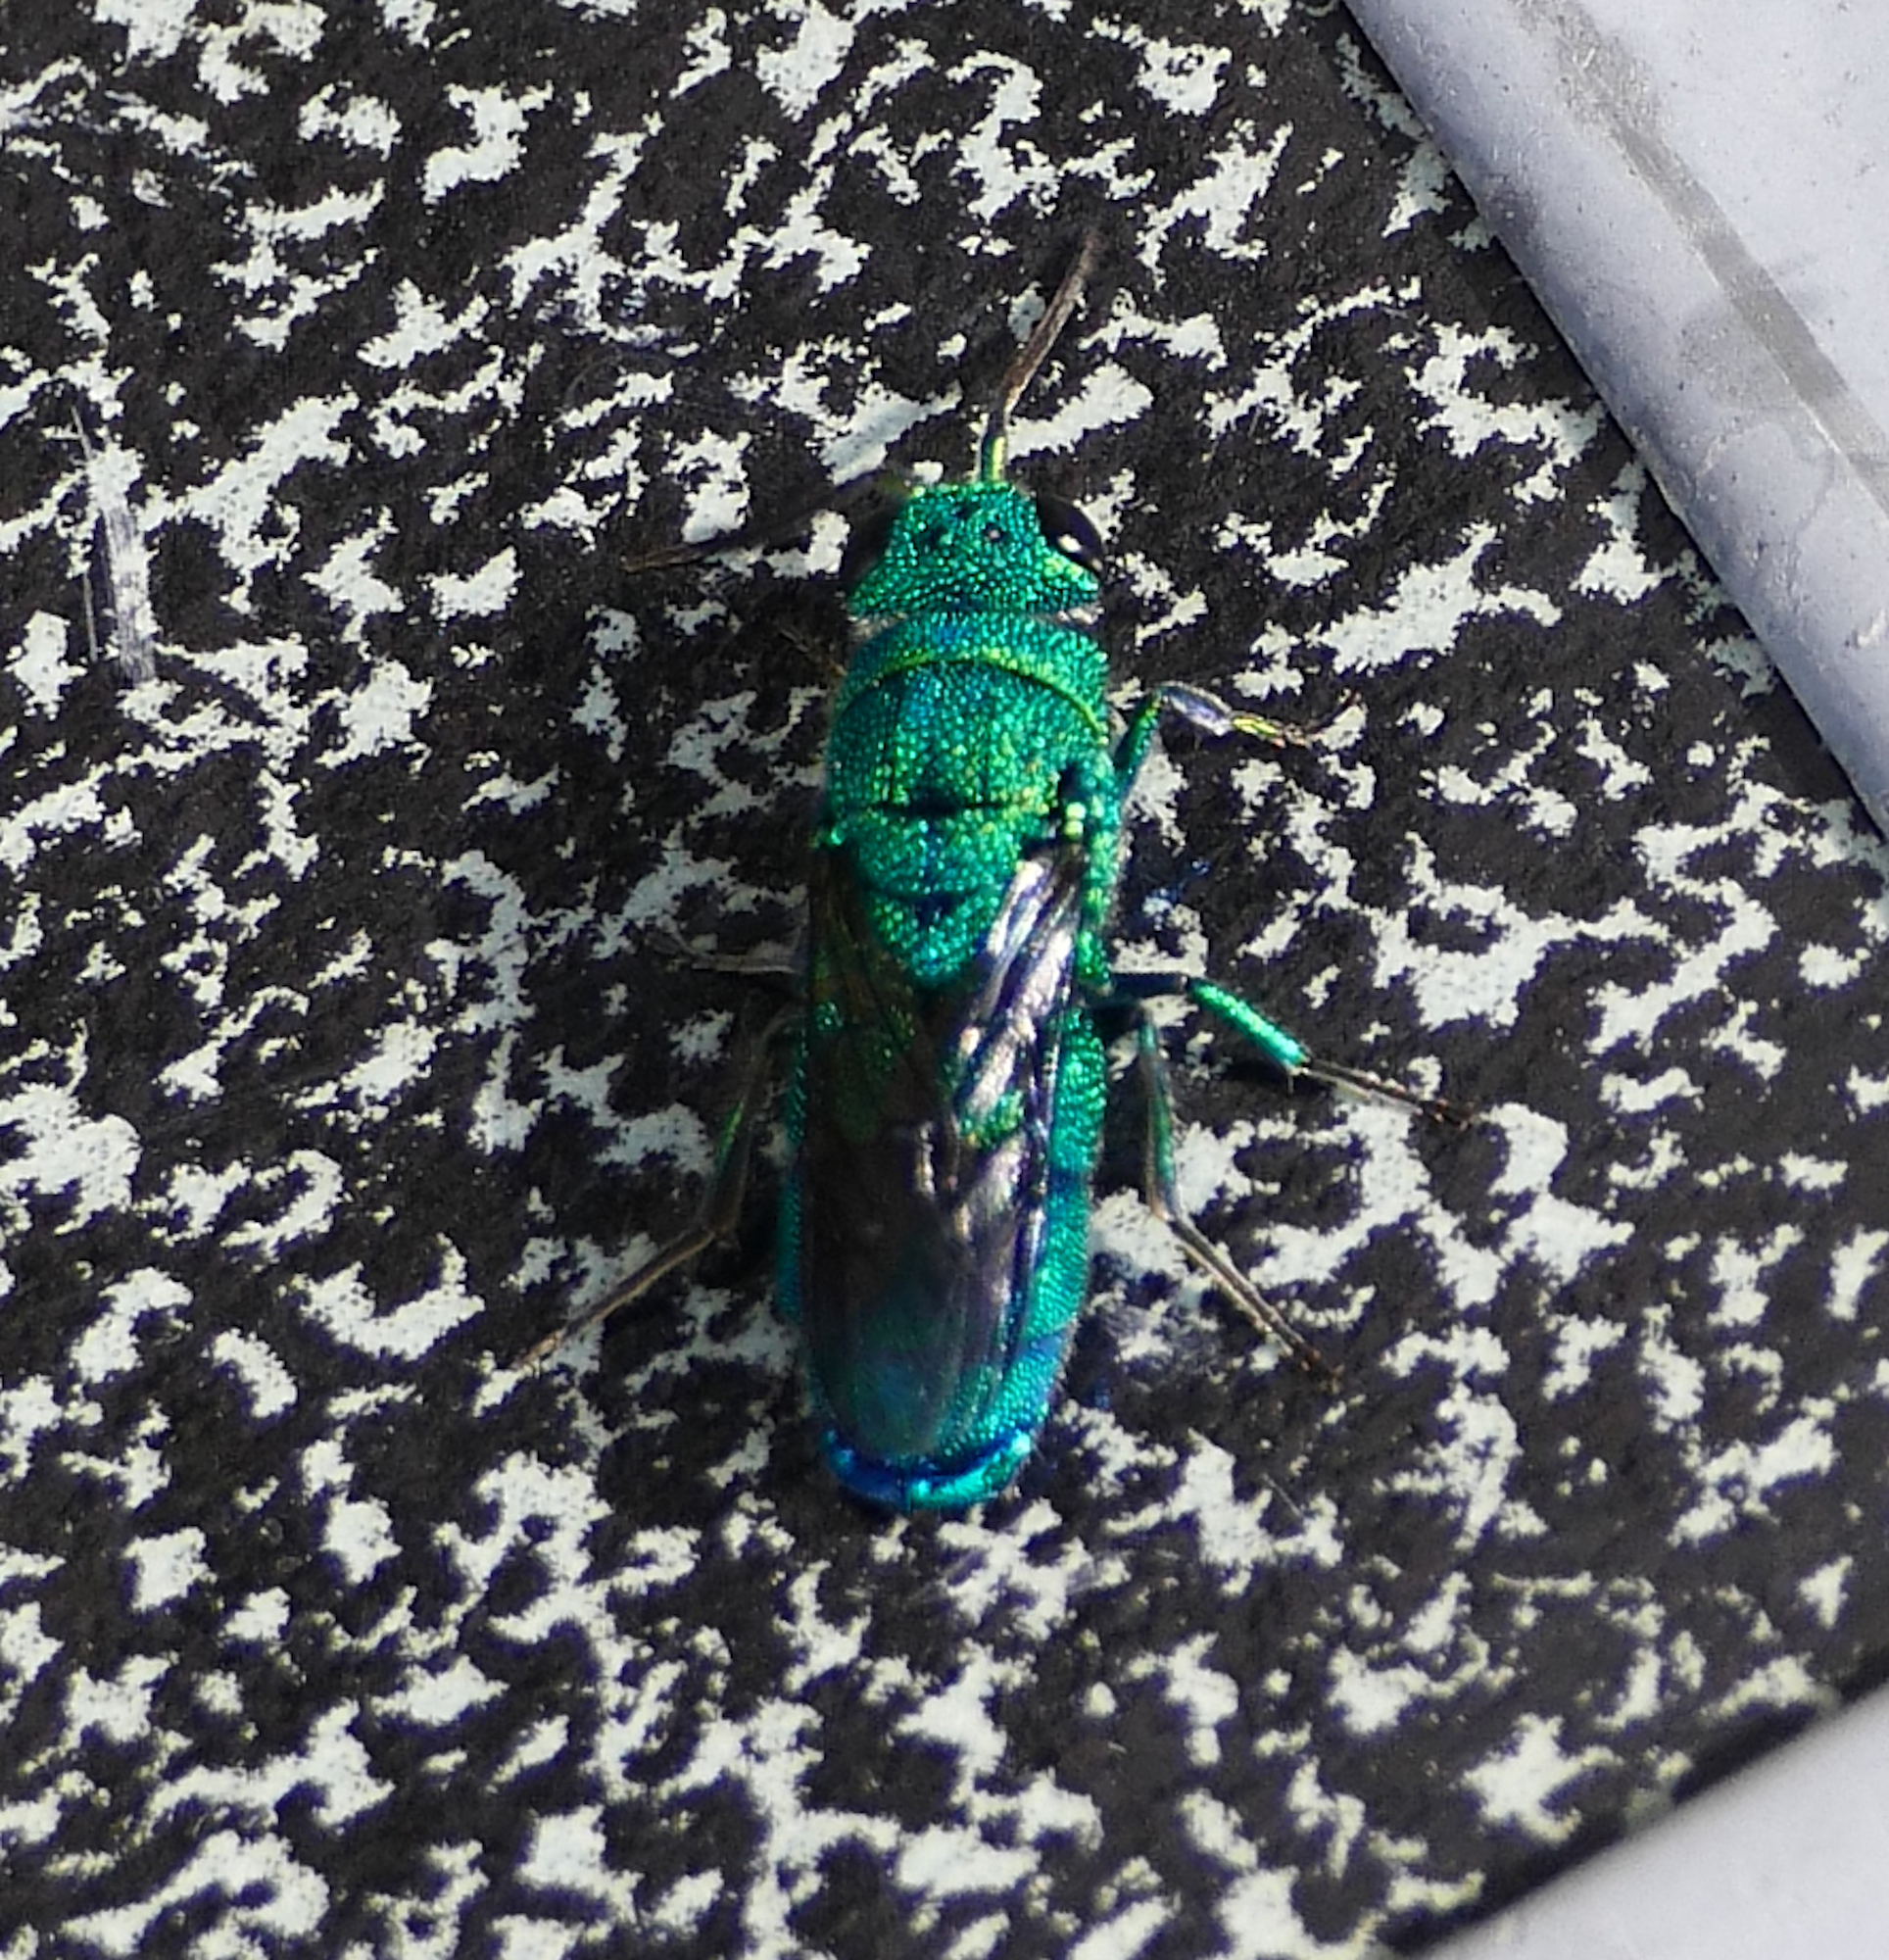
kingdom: Animalia
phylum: Arthropoda
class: Insecta
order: Hymenoptera
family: Chrysididae
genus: Caenochrysis
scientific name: Caenochrysis
